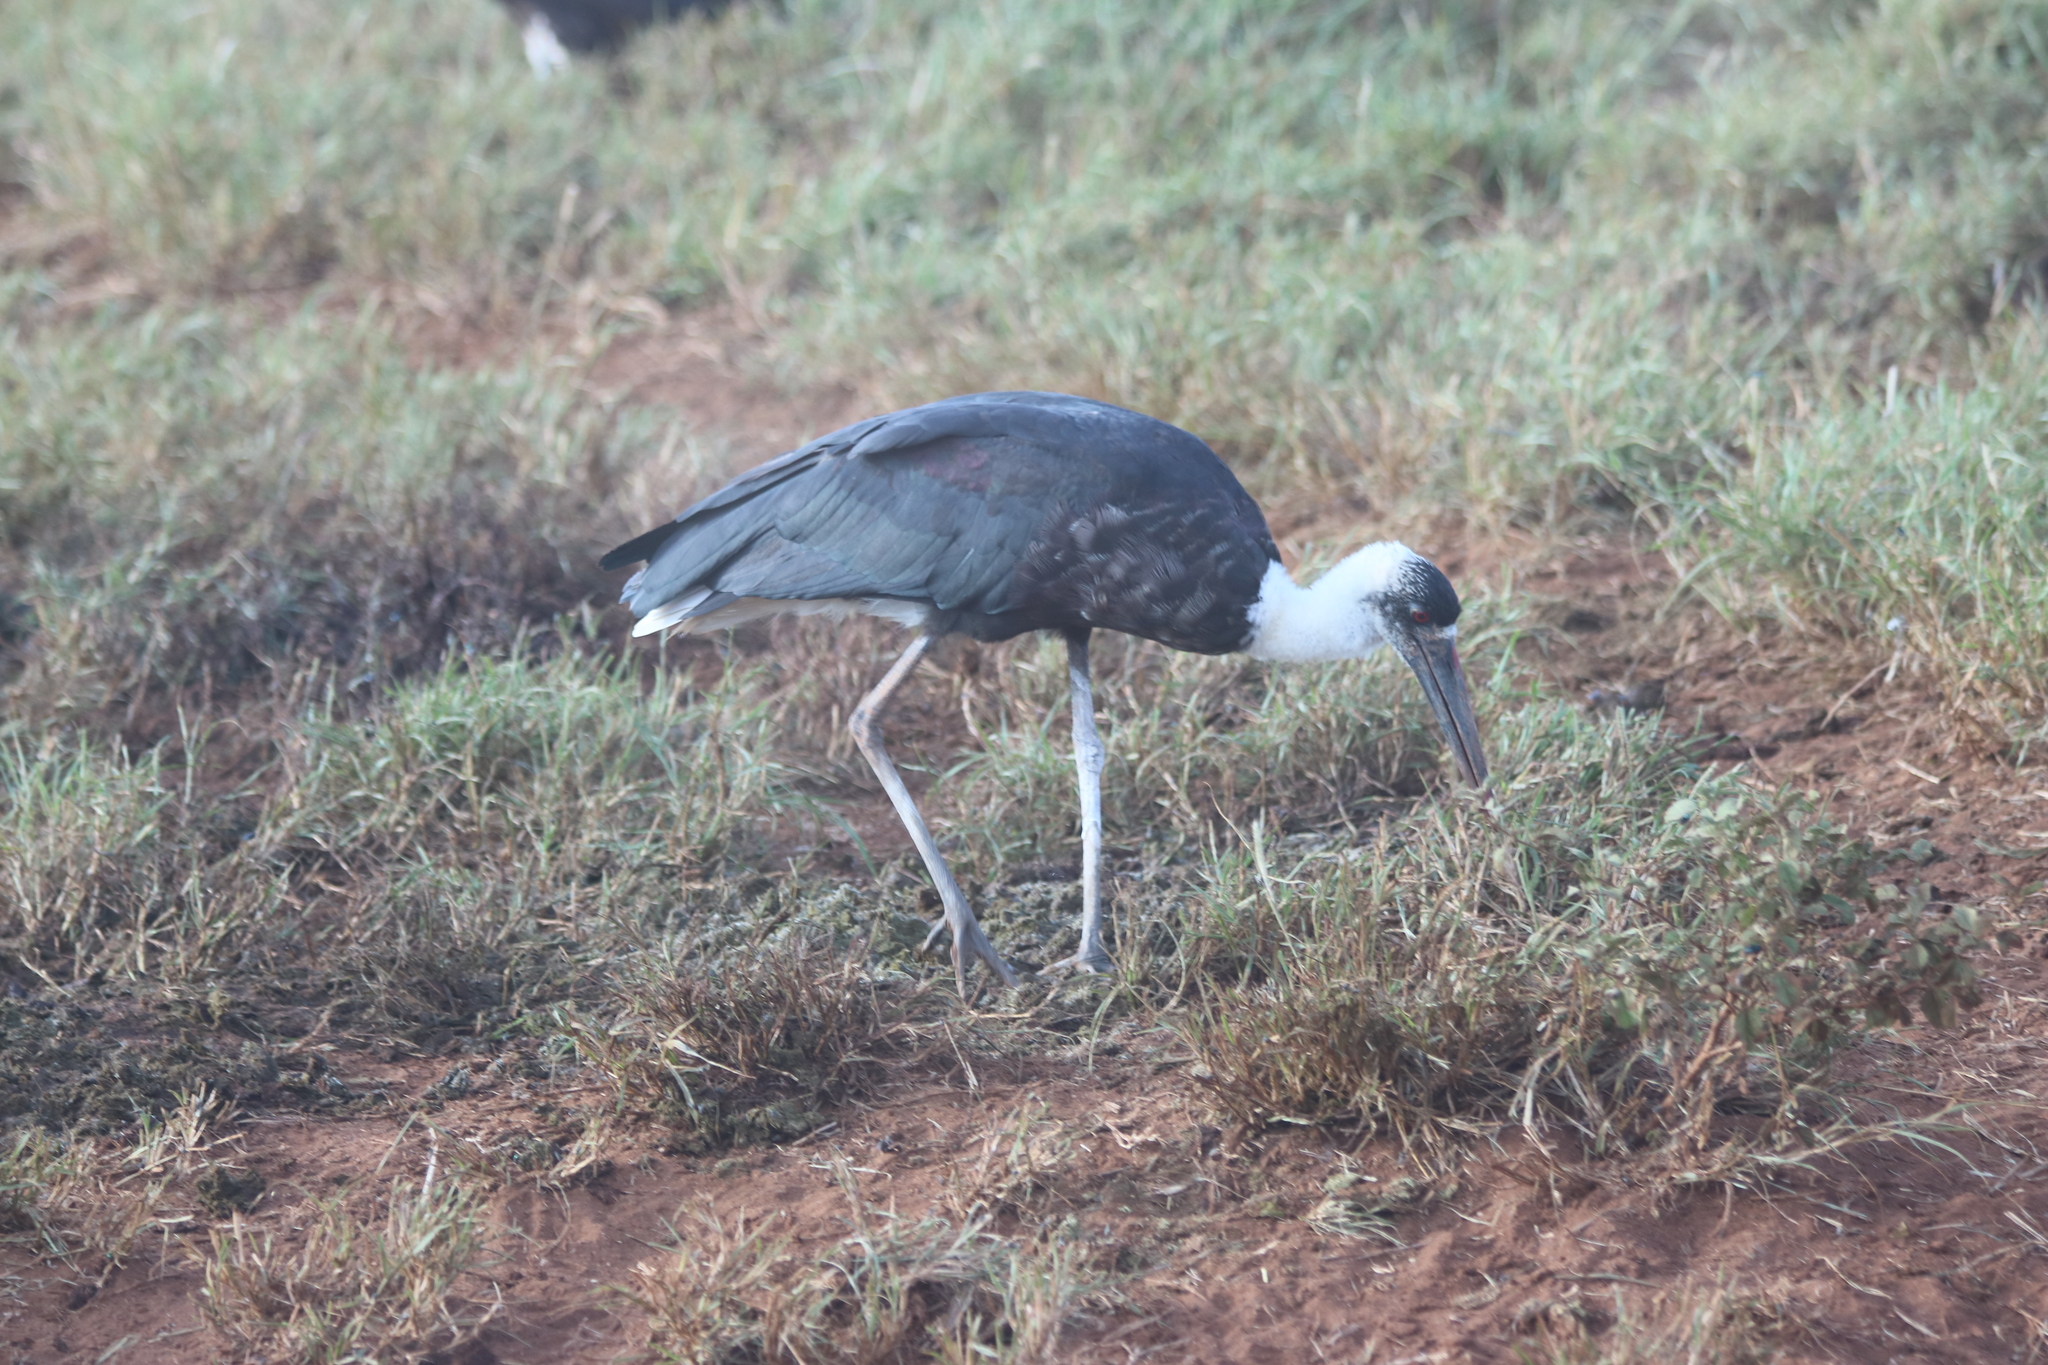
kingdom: Animalia
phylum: Chordata
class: Aves
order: Ciconiiformes
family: Ciconiidae
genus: Ciconia
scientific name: Ciconia microscelis
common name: African woollyneck
